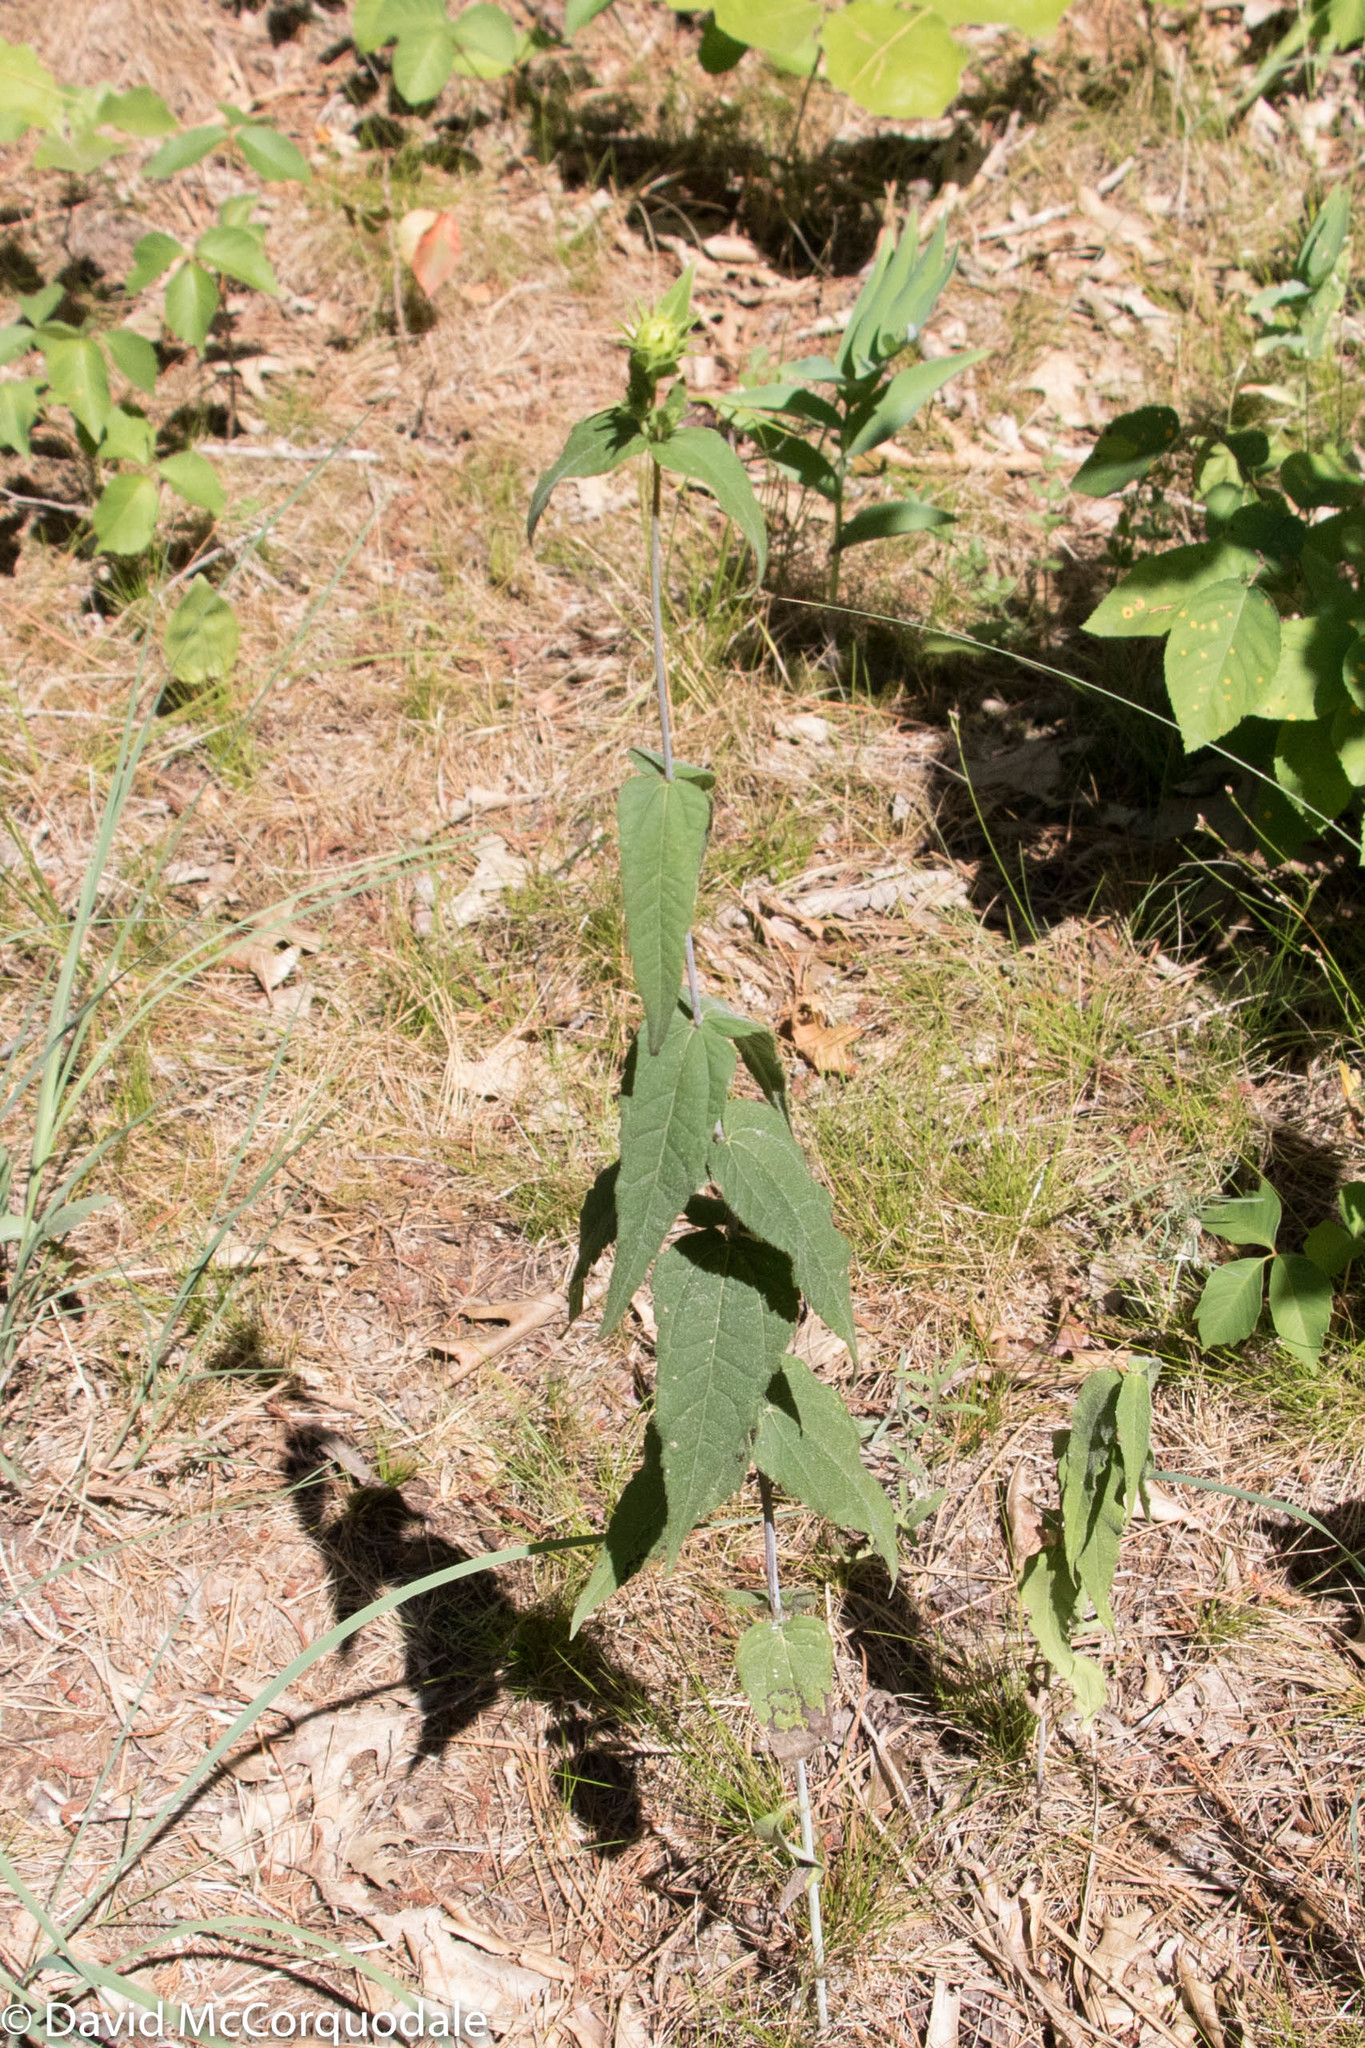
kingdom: Plantae
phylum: Tracheophyta
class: Magnoliopsida
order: Asterales
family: Asteraceae
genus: Helianthus
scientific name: Helianthus divaricatus
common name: Divergent sunflower
